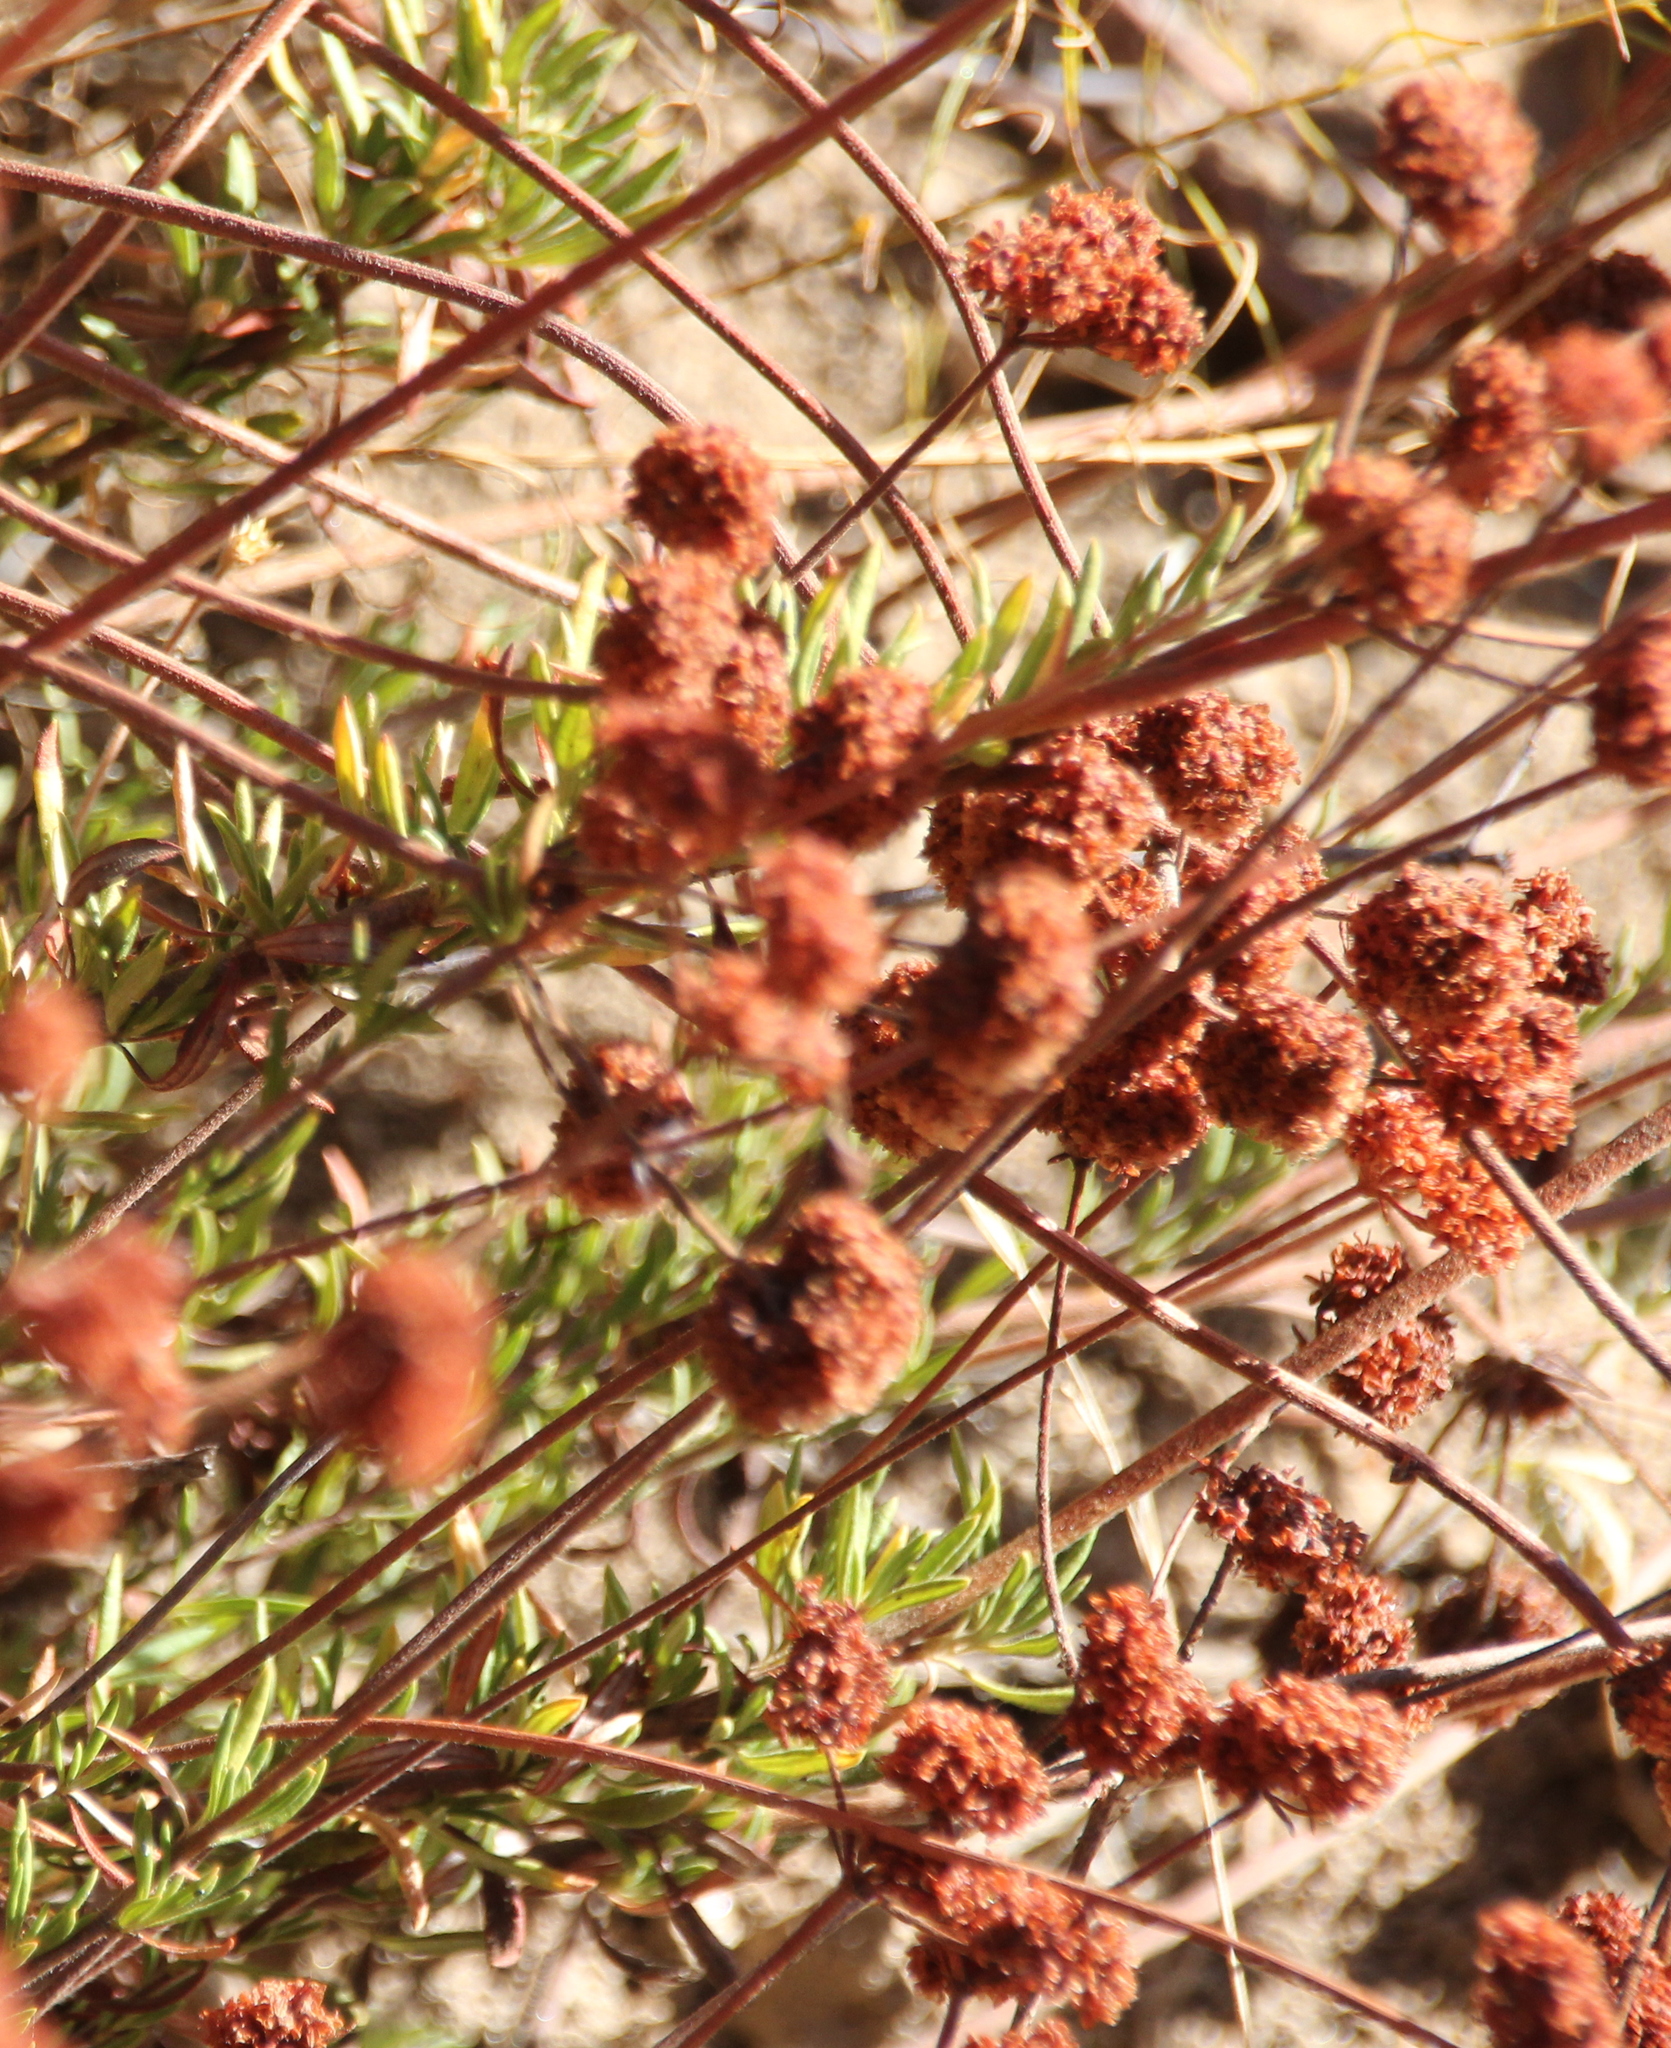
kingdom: Plantae
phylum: Tracheophyta
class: Magnoliopsida
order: Caryophyllales
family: Polygonaceae
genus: Eriogonum
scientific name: Eriogonum fasciculatum
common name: California wild buckwheat
